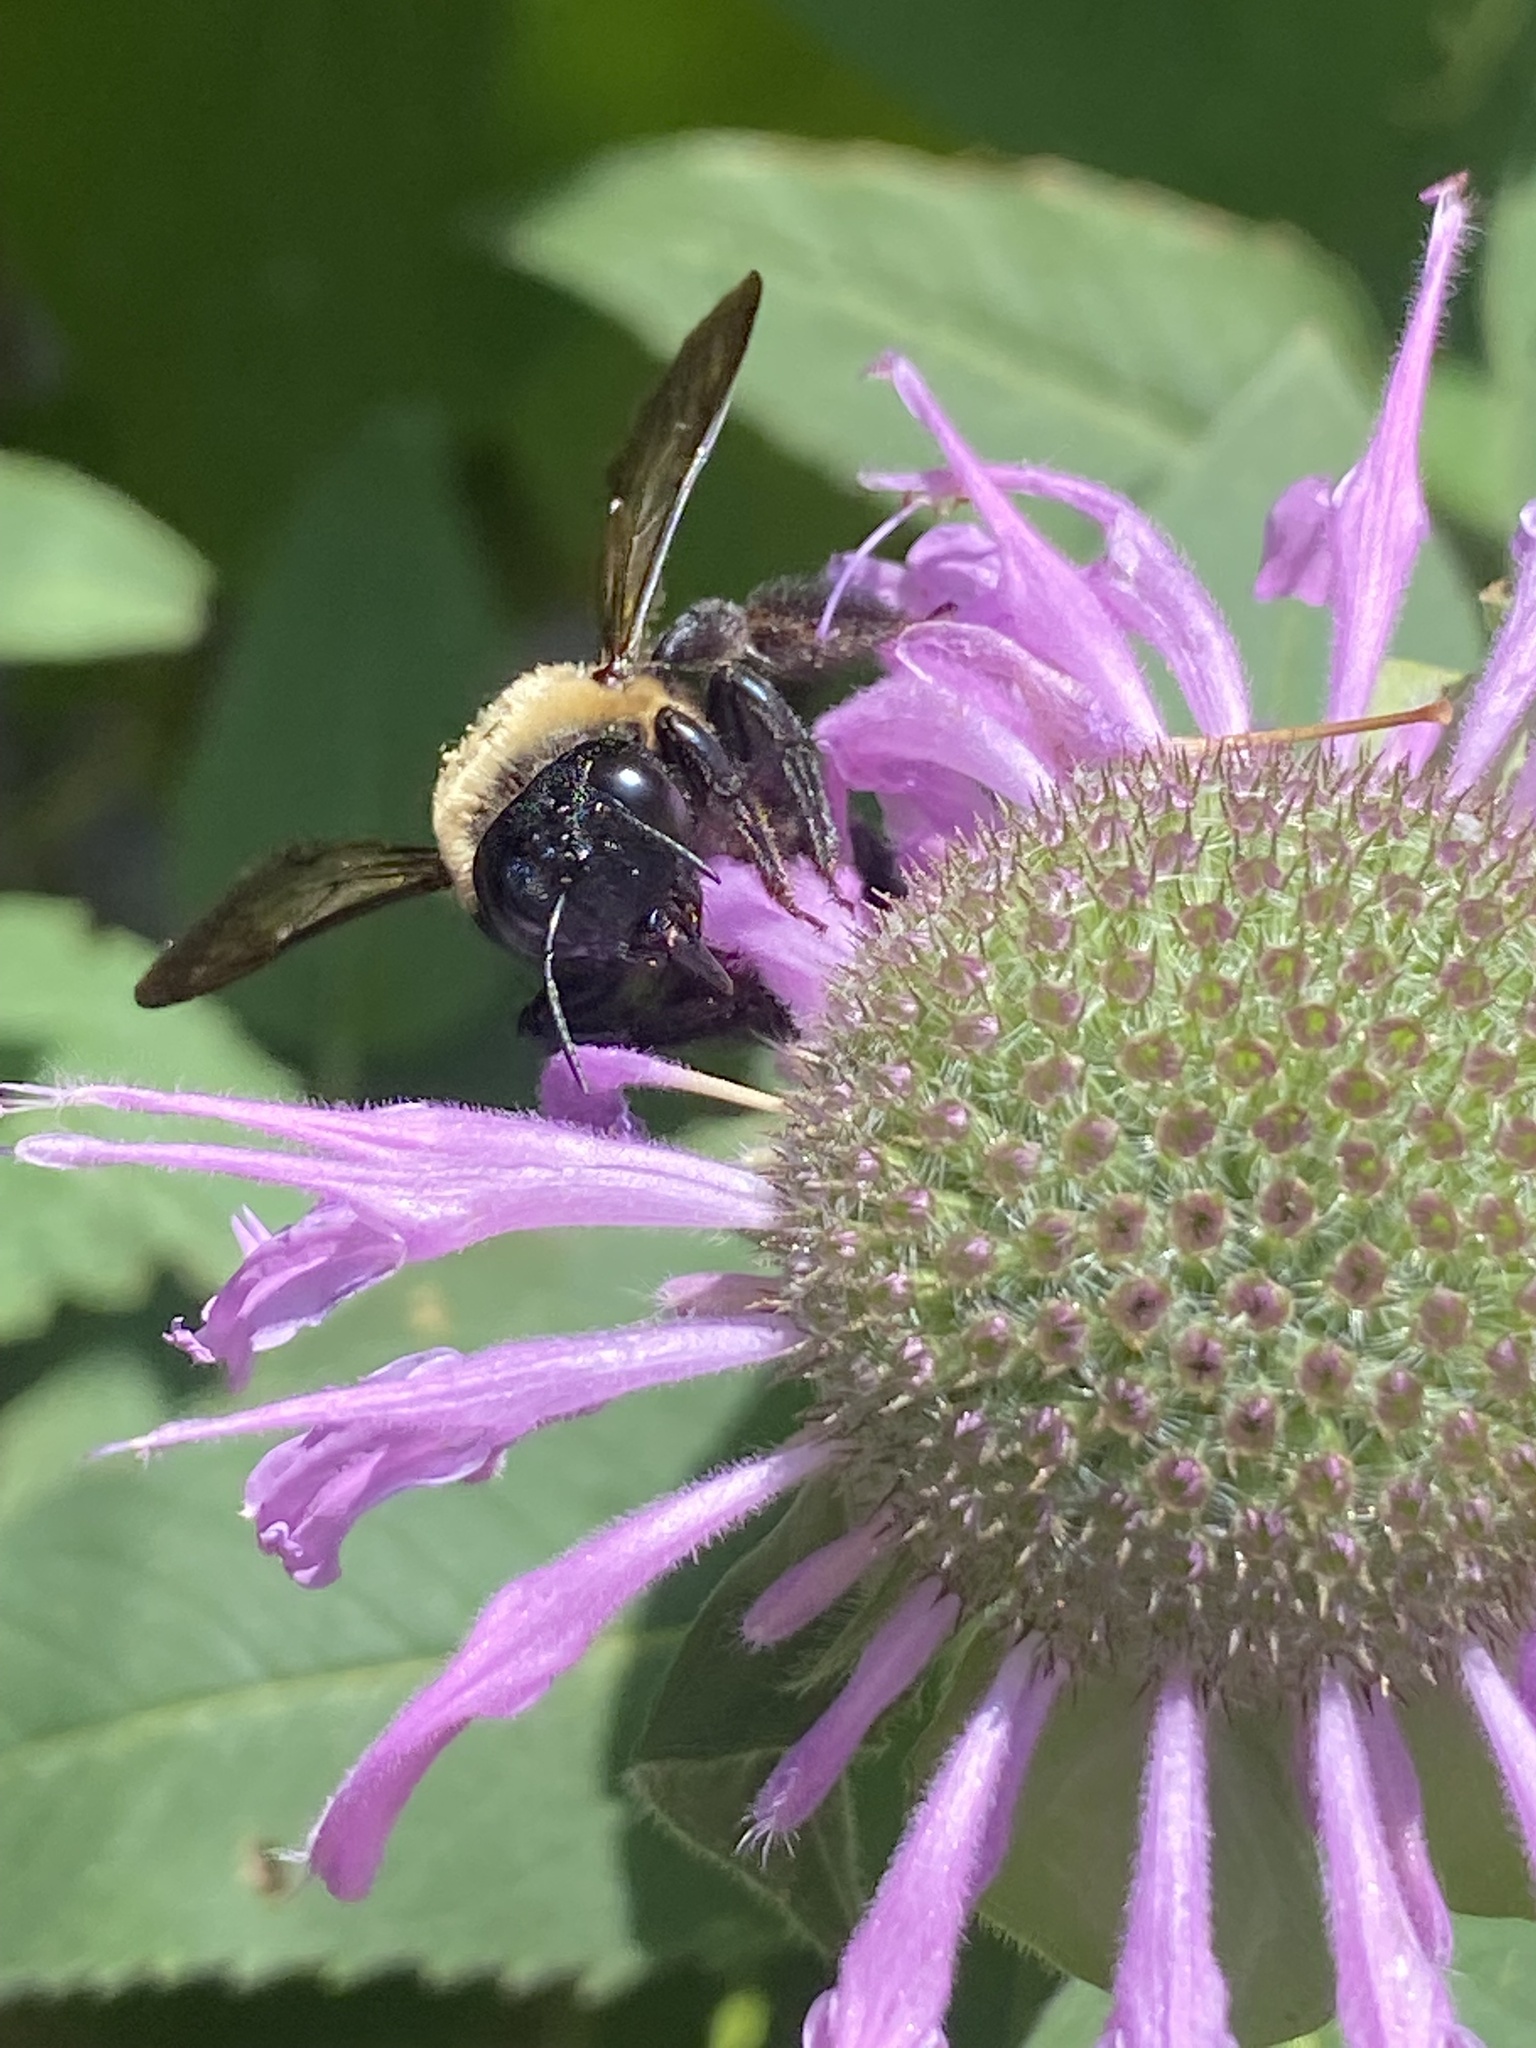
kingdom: Animalia
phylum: Arthropoda
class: Insecta
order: Hymenoptera
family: Apidae
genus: Bombus
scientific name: Bombus griseocollis
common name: Brown-belted bumble bee
